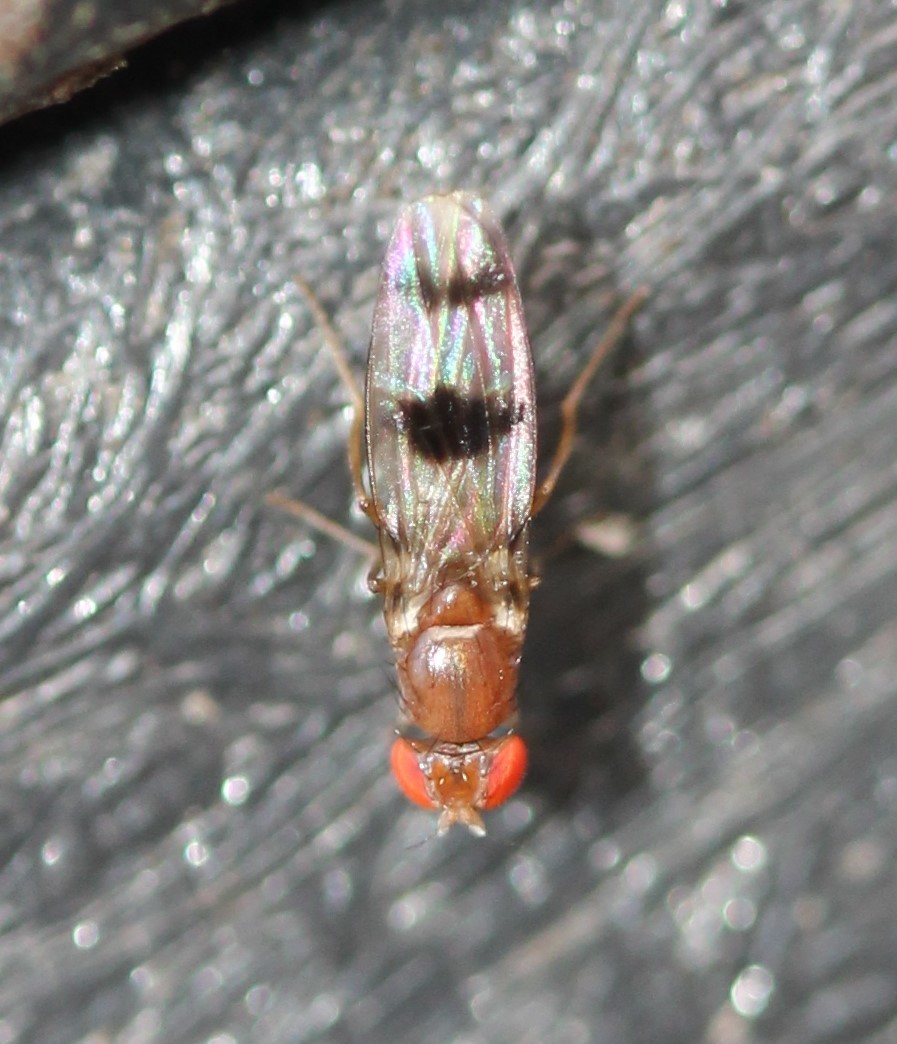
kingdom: Animalia
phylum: Arthropoda
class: Insecta
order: Diptera
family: Drosophilidae
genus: Chymomyza
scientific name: Chymomyza amoena
